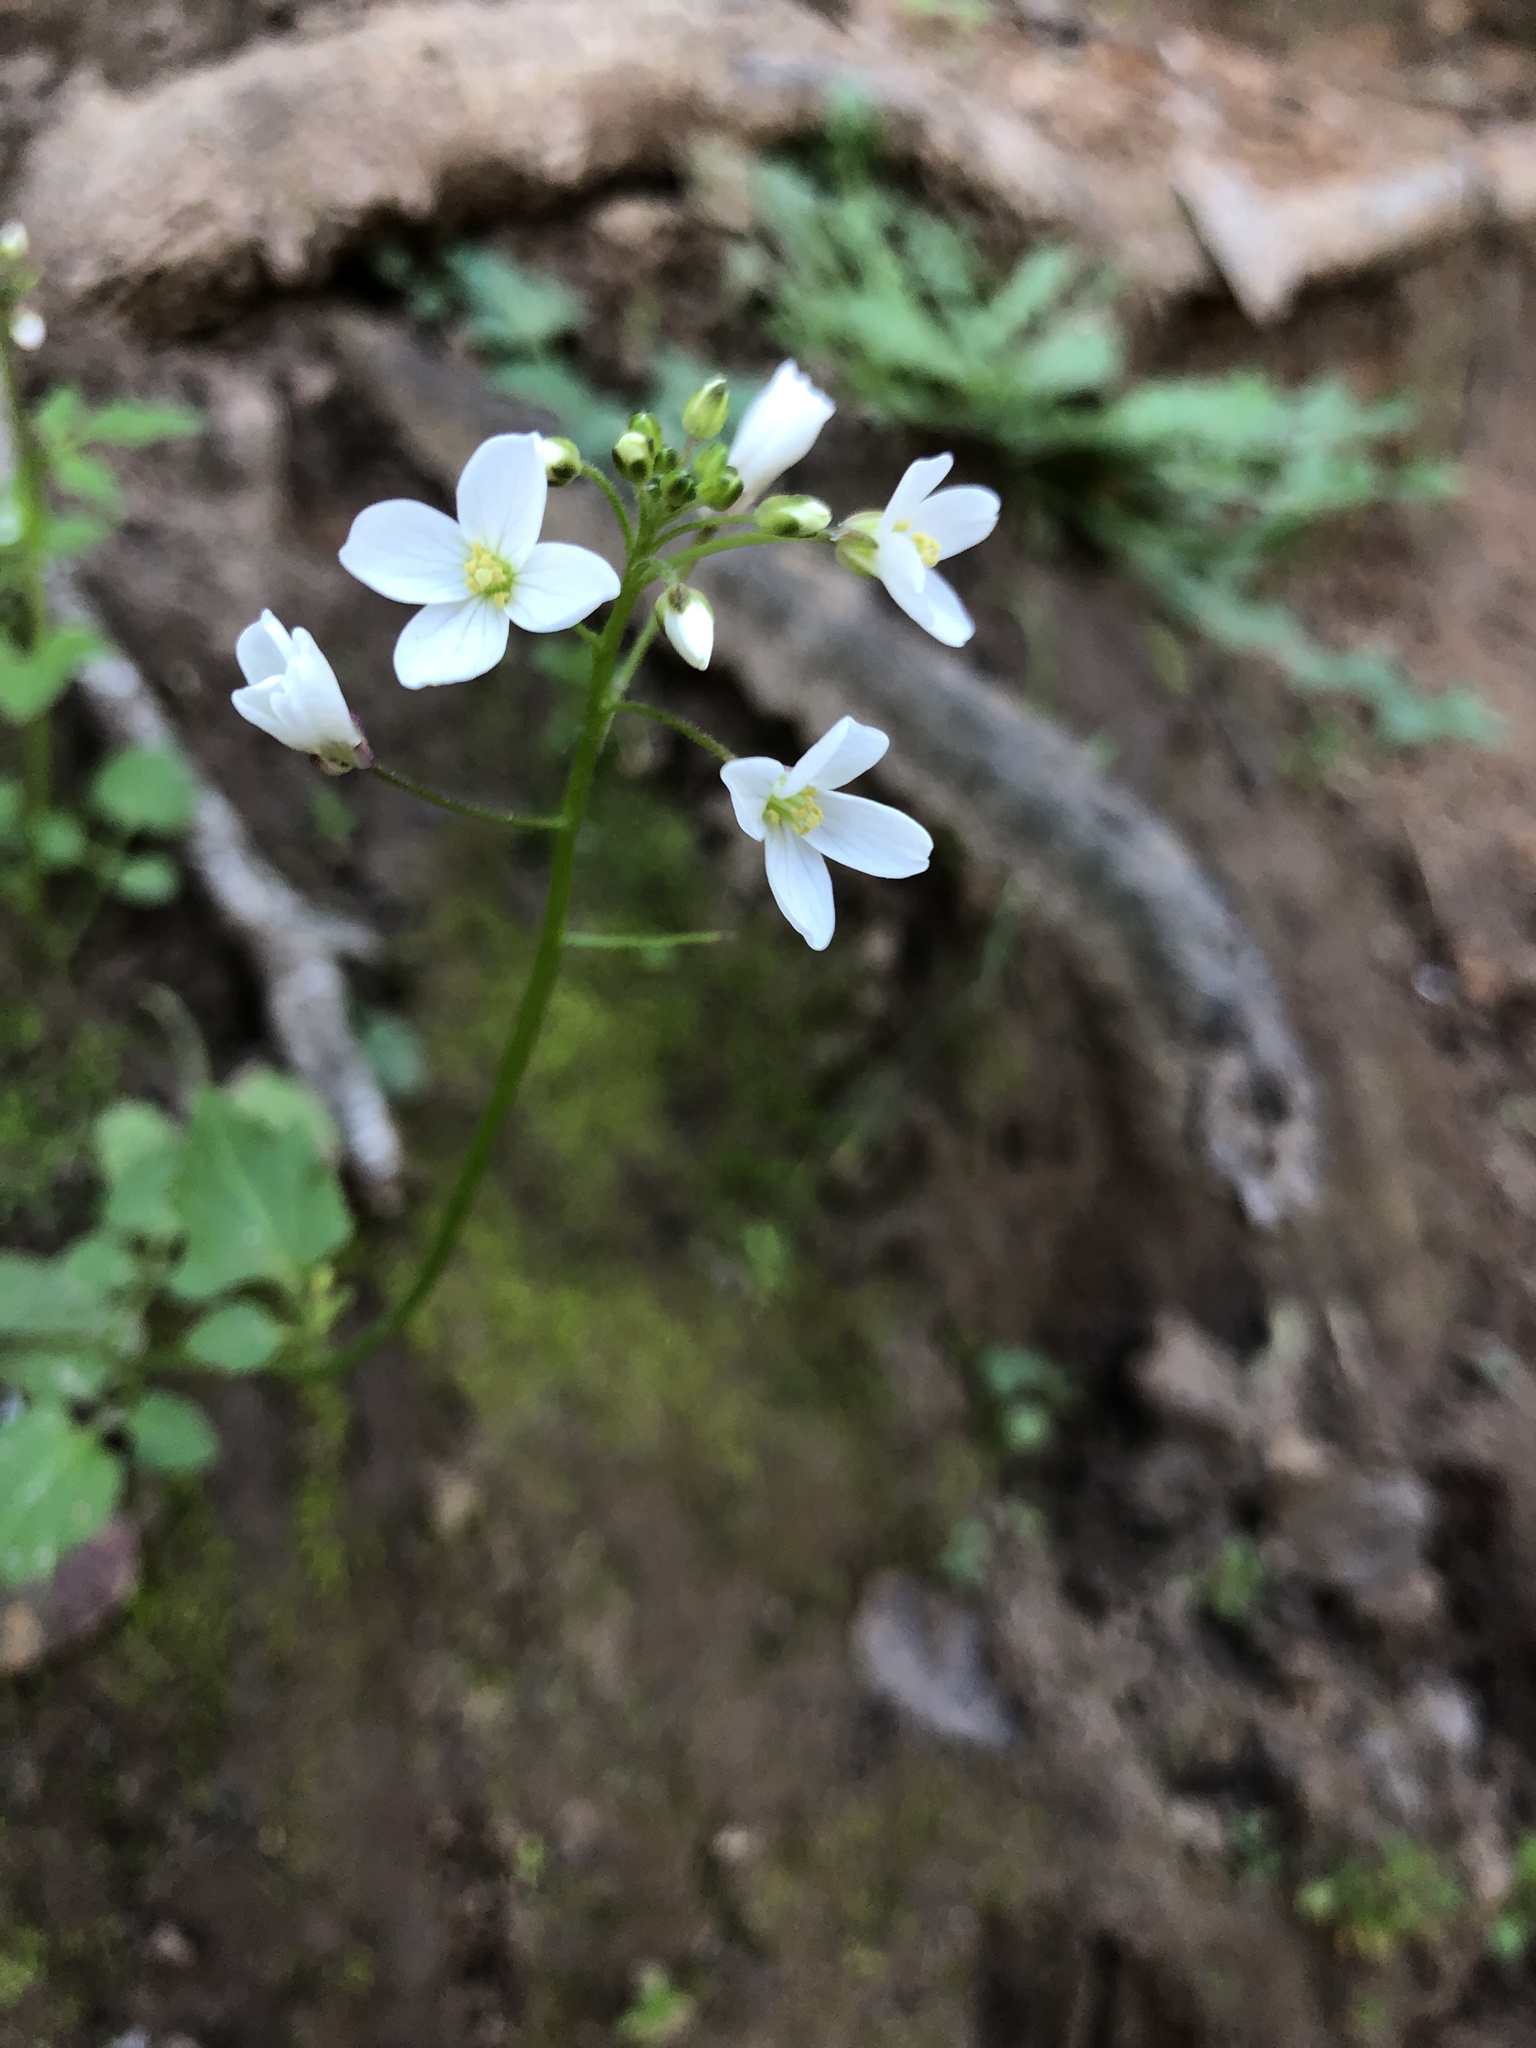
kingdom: Plantae
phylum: Tracheophyta
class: Magnoliopsida
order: Brassicales
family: Brassicaceae
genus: Cardamine
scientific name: Cardamine californica
